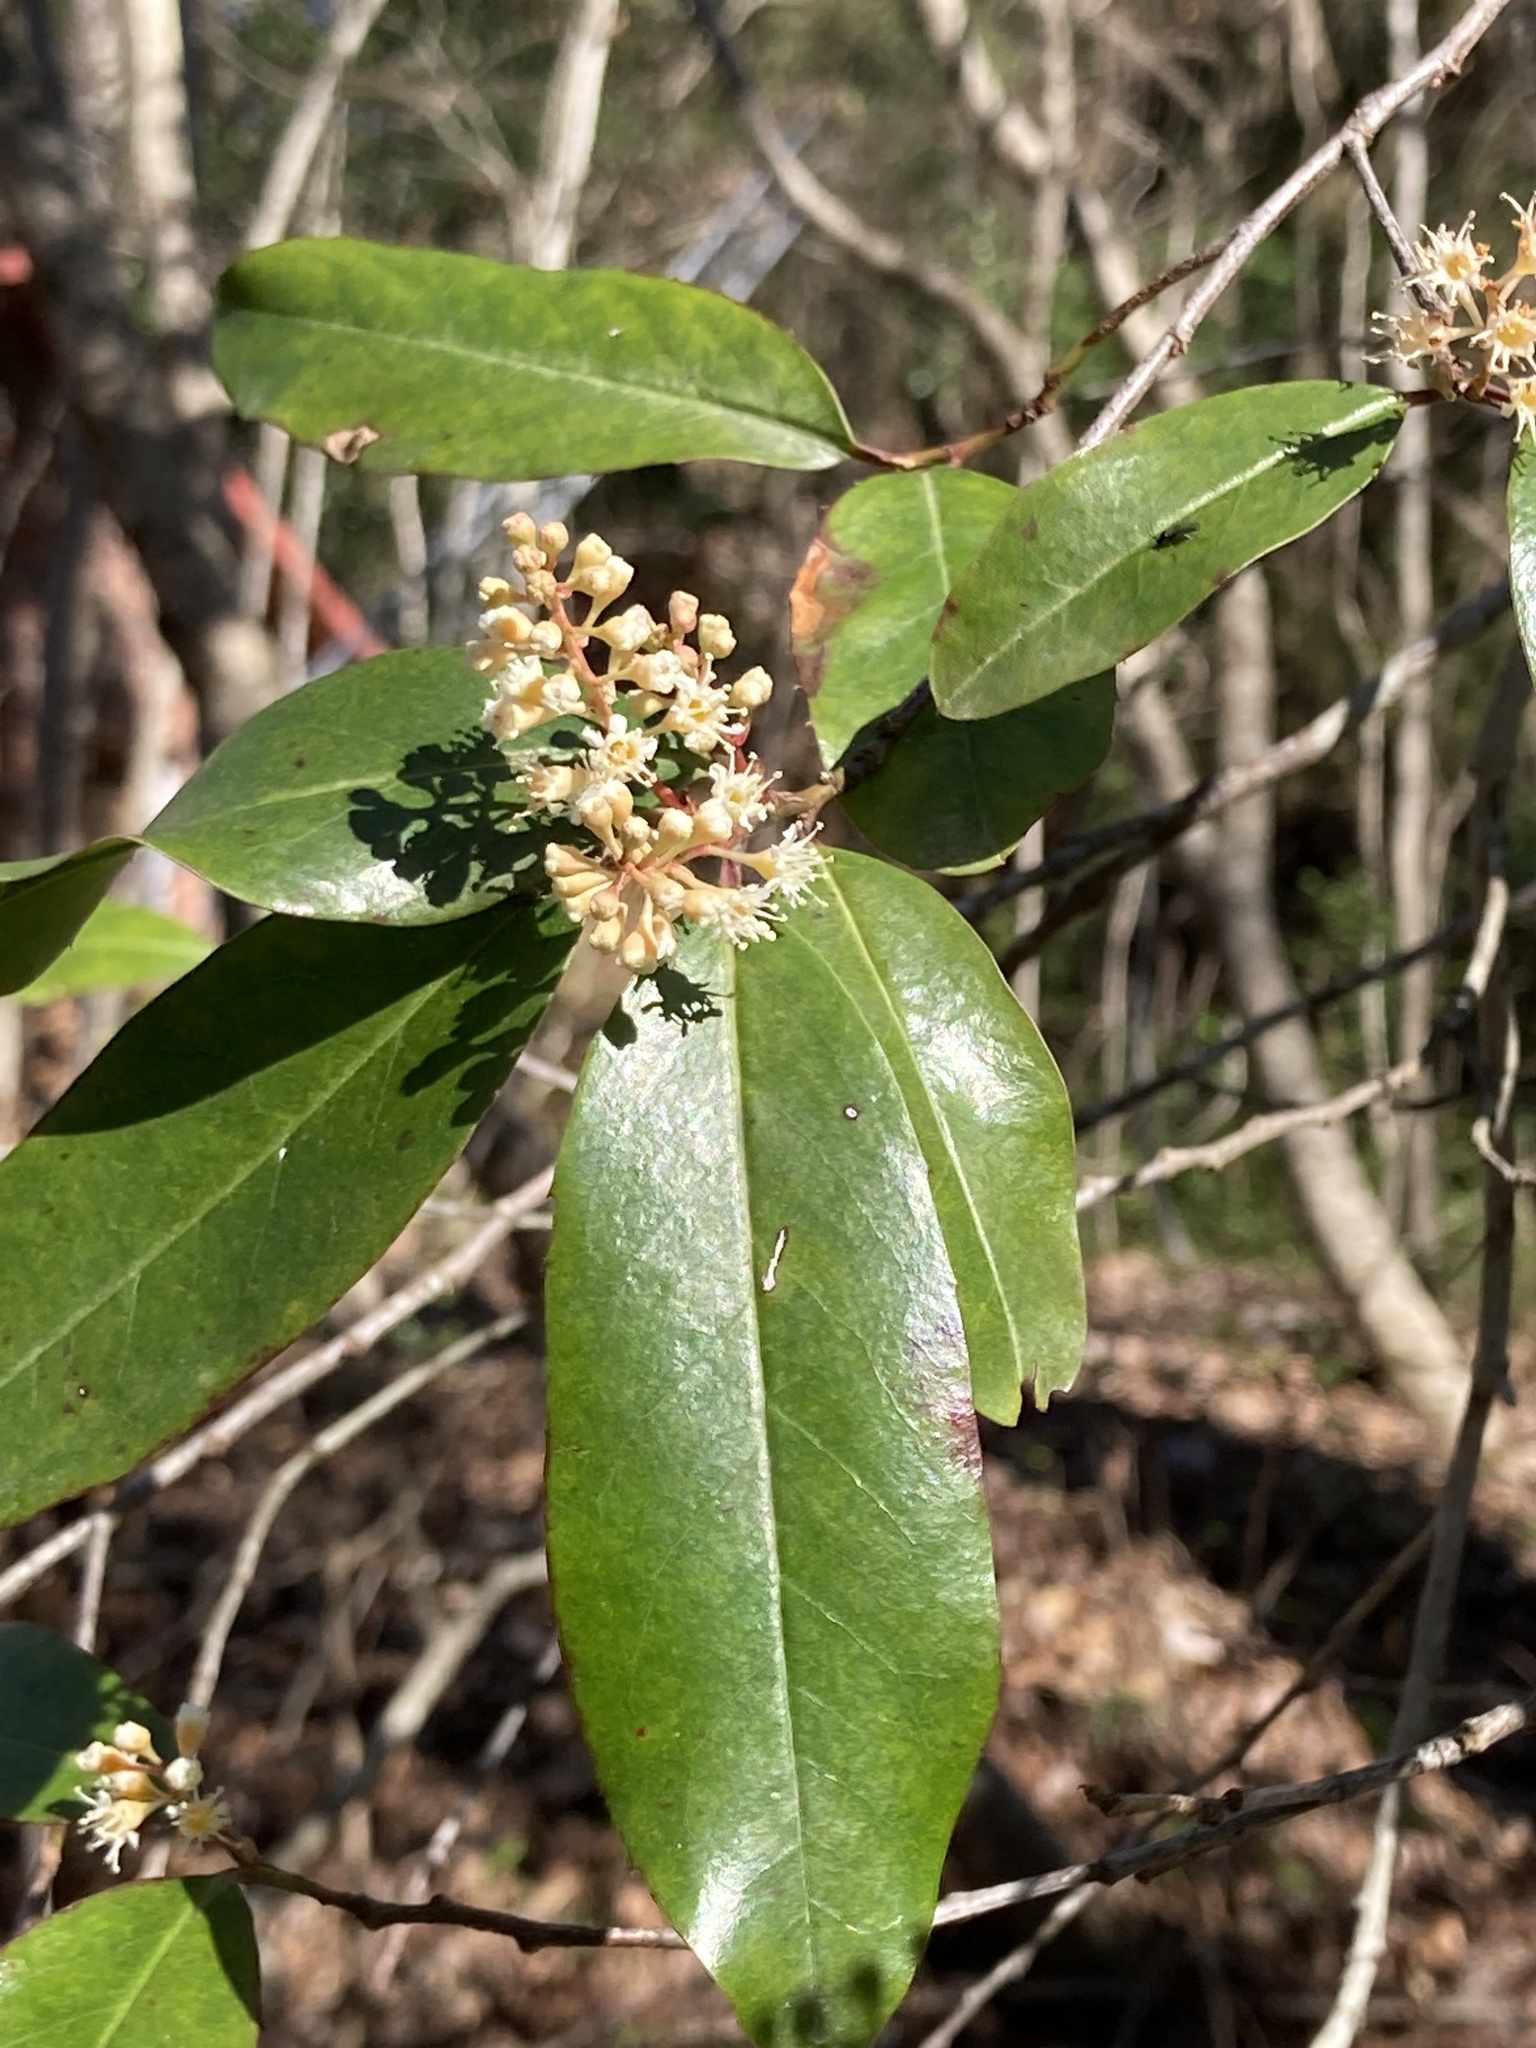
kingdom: Plantae
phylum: Tracheophyta
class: Magnoliopsida
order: Rosales
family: Rosaceae
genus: Prunus
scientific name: Prunus caroliniana
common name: Carolina laurel cherry
